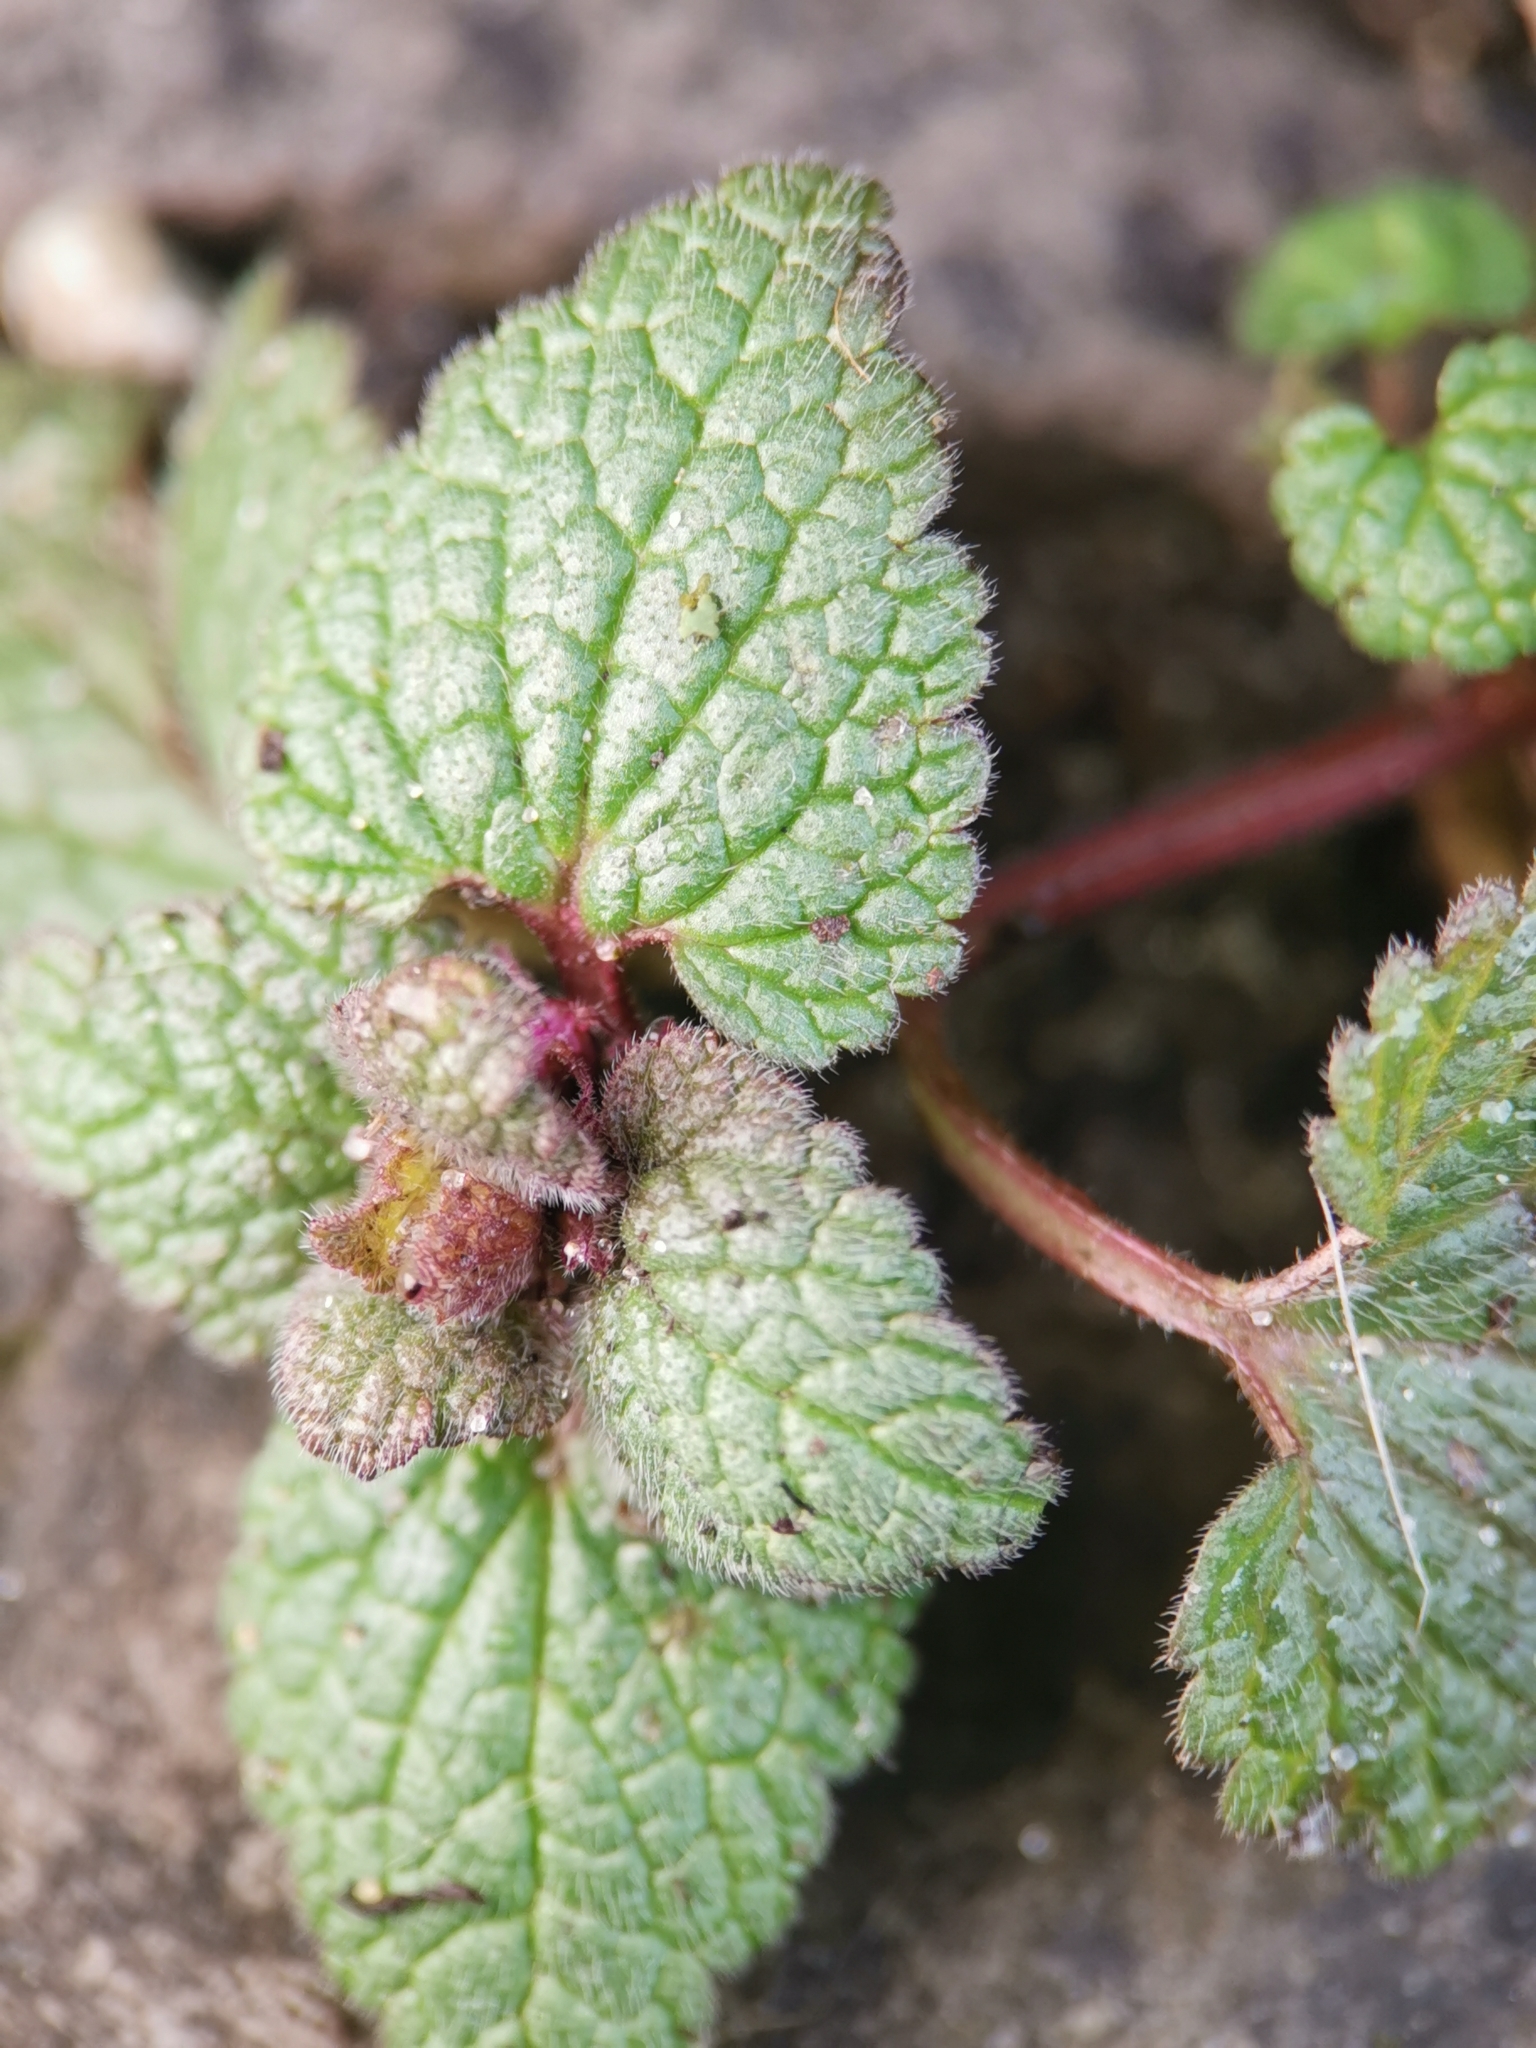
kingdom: Plantae
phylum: Tracheophyta
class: Magnoliopsida
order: Lamiales
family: Lamiaceae
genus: Lamium
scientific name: Lamium purpureum
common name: Red dead-nettle
